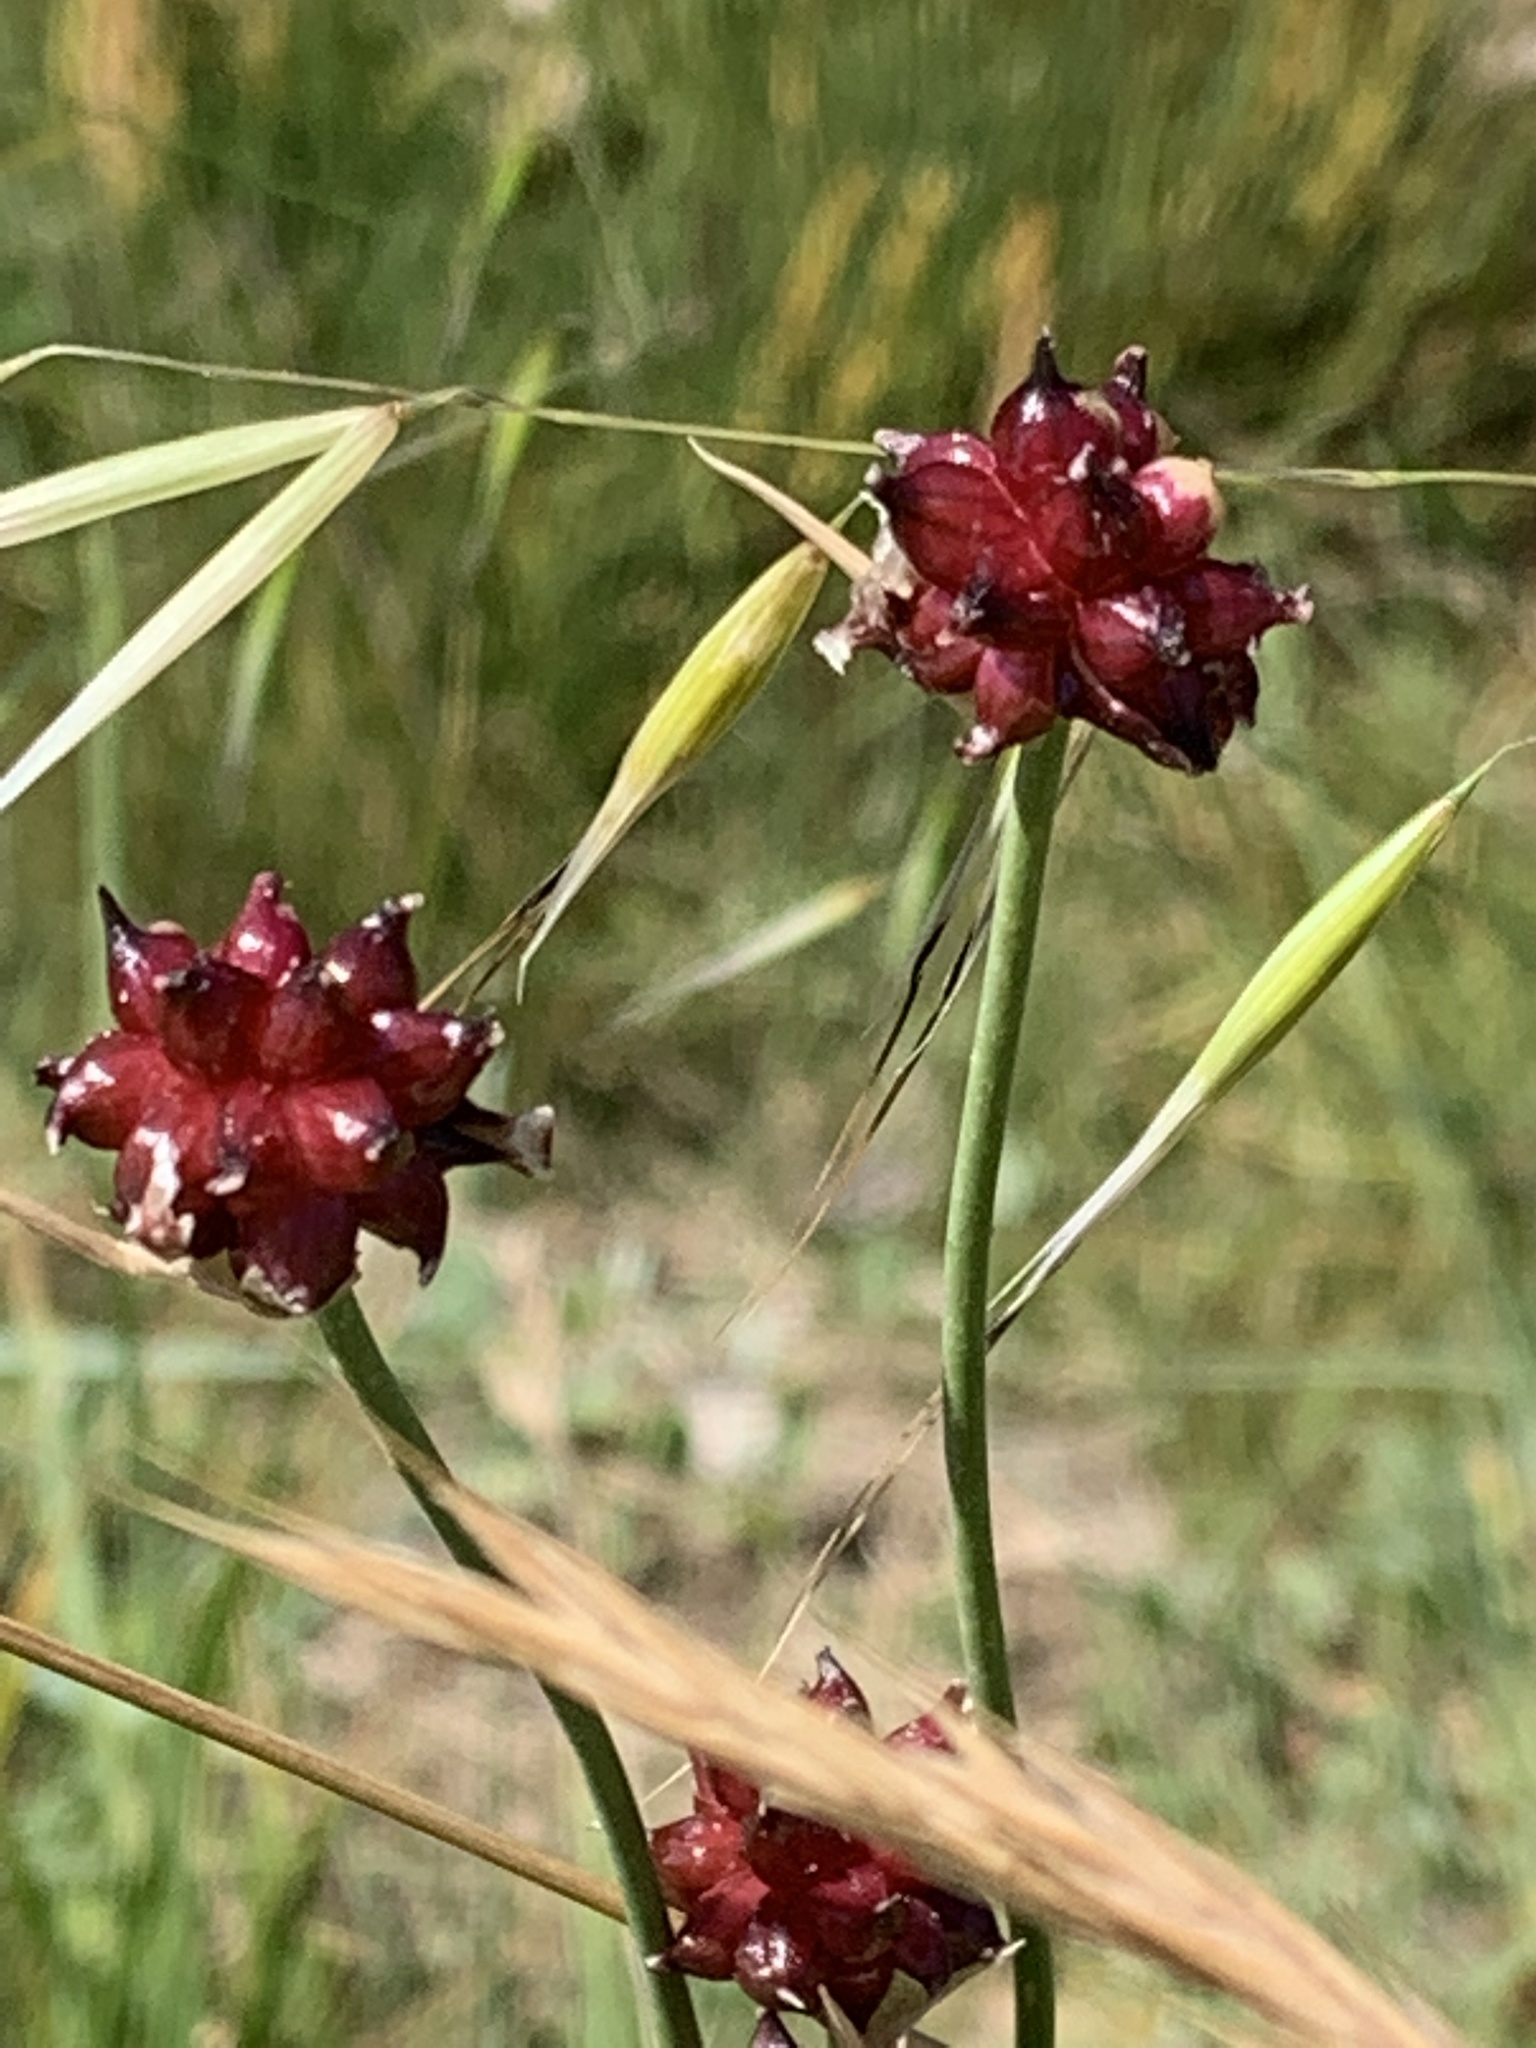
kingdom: Plantae
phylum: Tracheophyta
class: Liliopsida
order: Asparagales
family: Amaryllidaceae
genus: Allium
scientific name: Allium vineale
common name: Crow garlic
